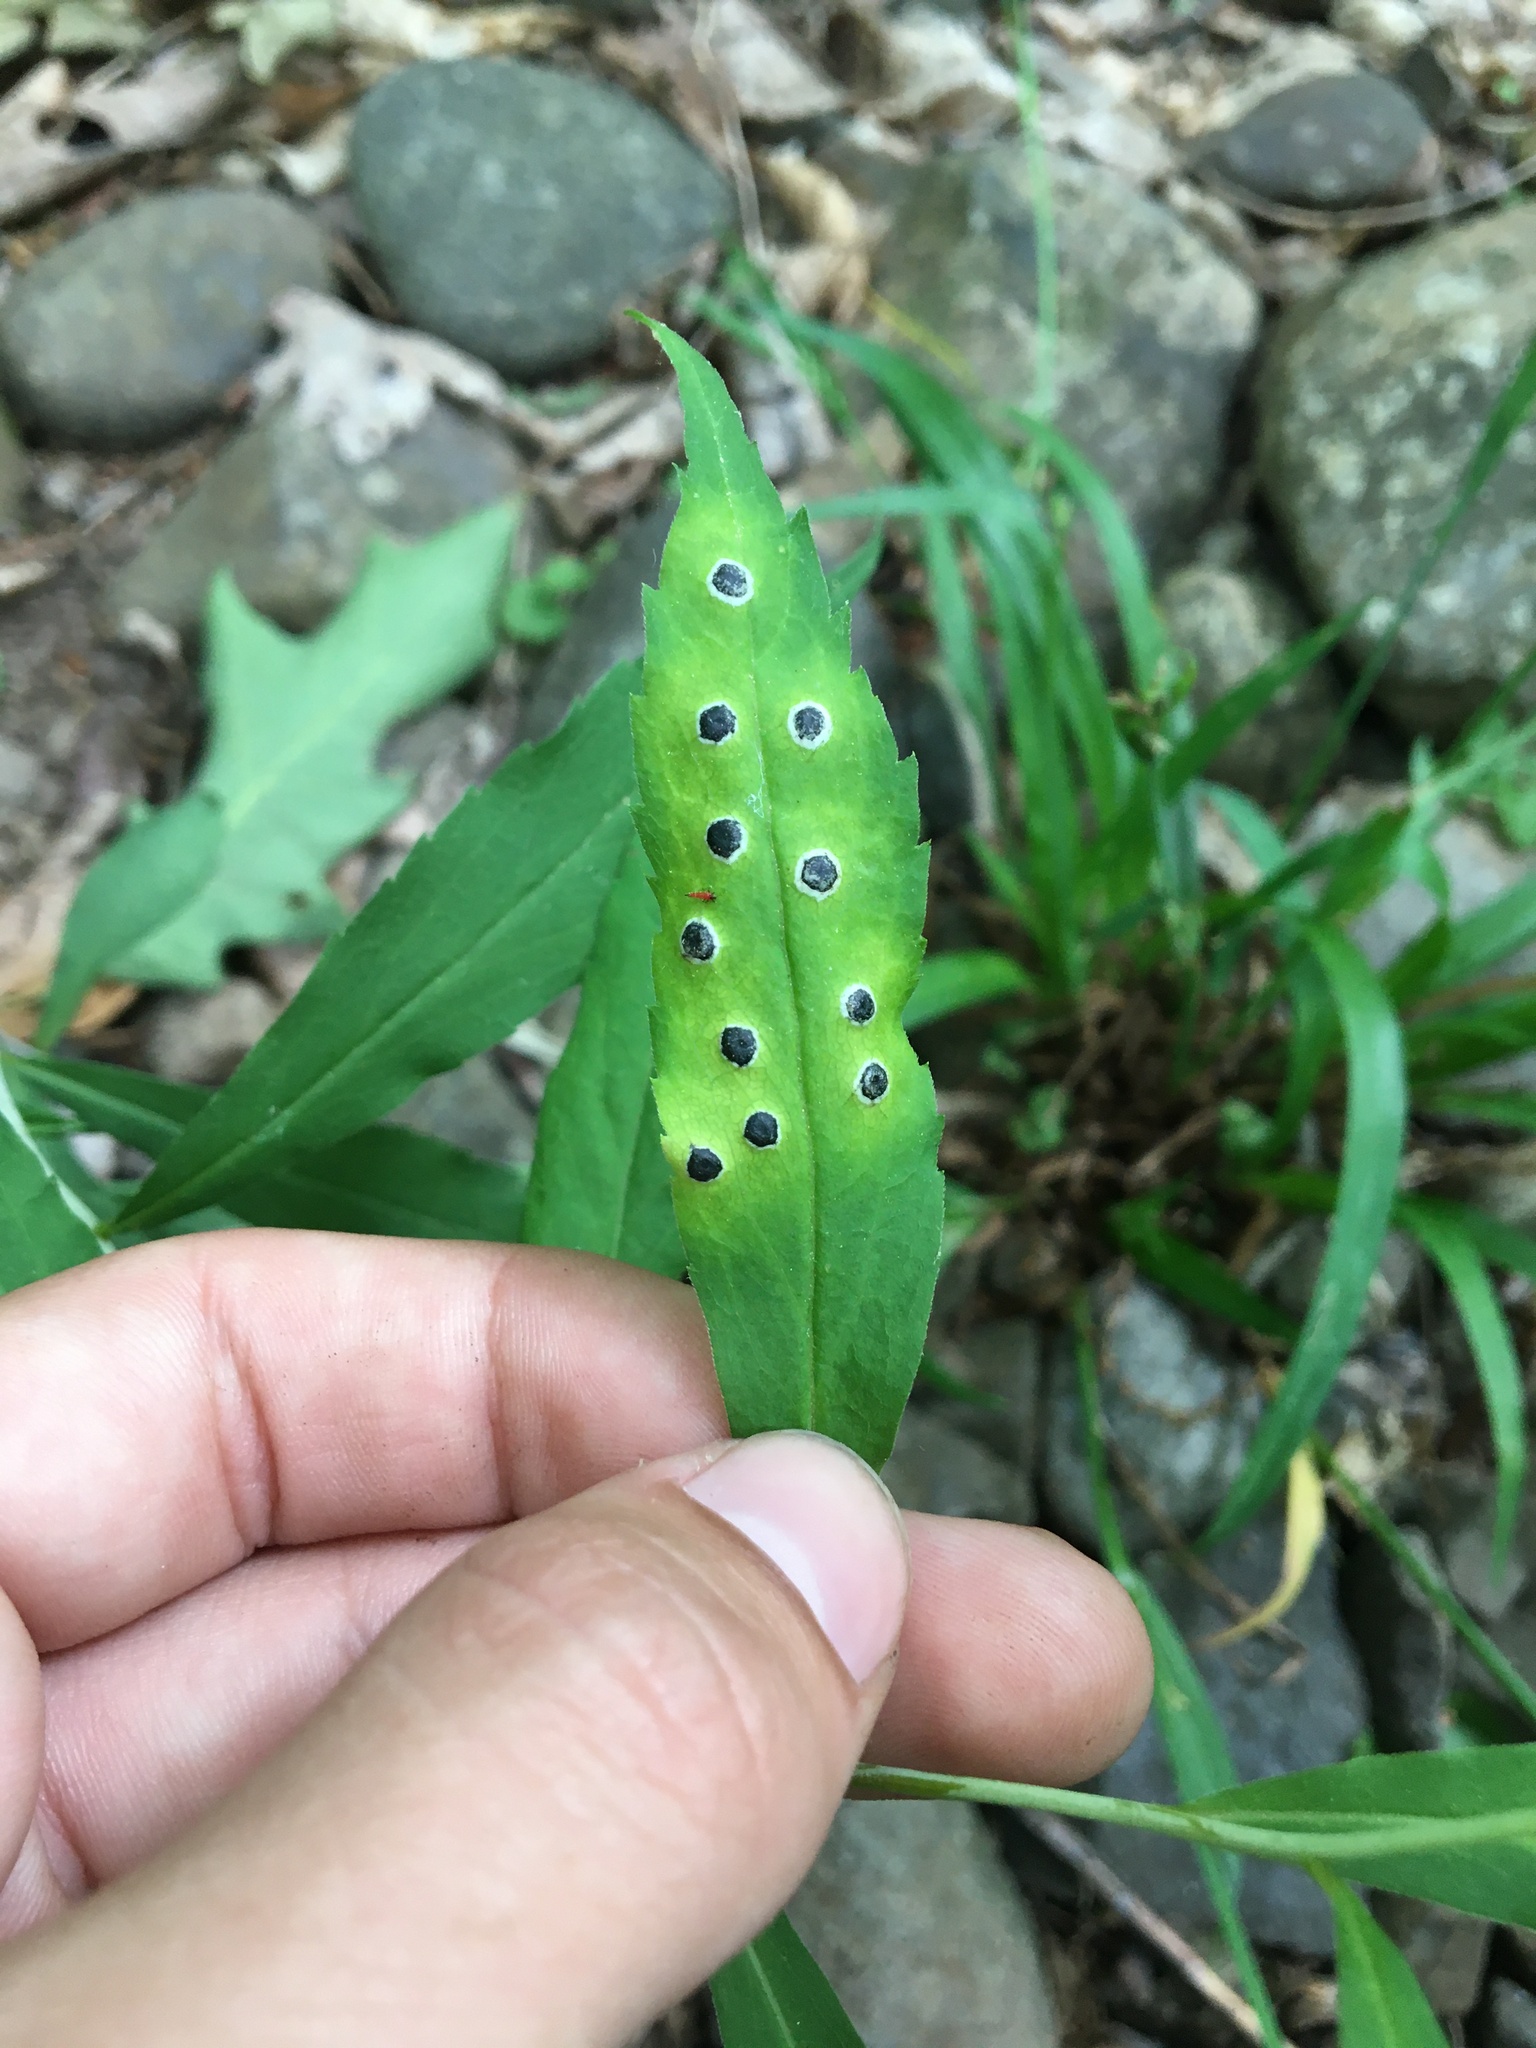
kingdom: Fungi
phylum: Ascomycota
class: Dothideomycetes
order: Botryosphaeriales
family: Botryosphaeriaceae
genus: Botryosphaeria
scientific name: Botryosphaeria dothidea
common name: Asteromyia gall midge fungus
